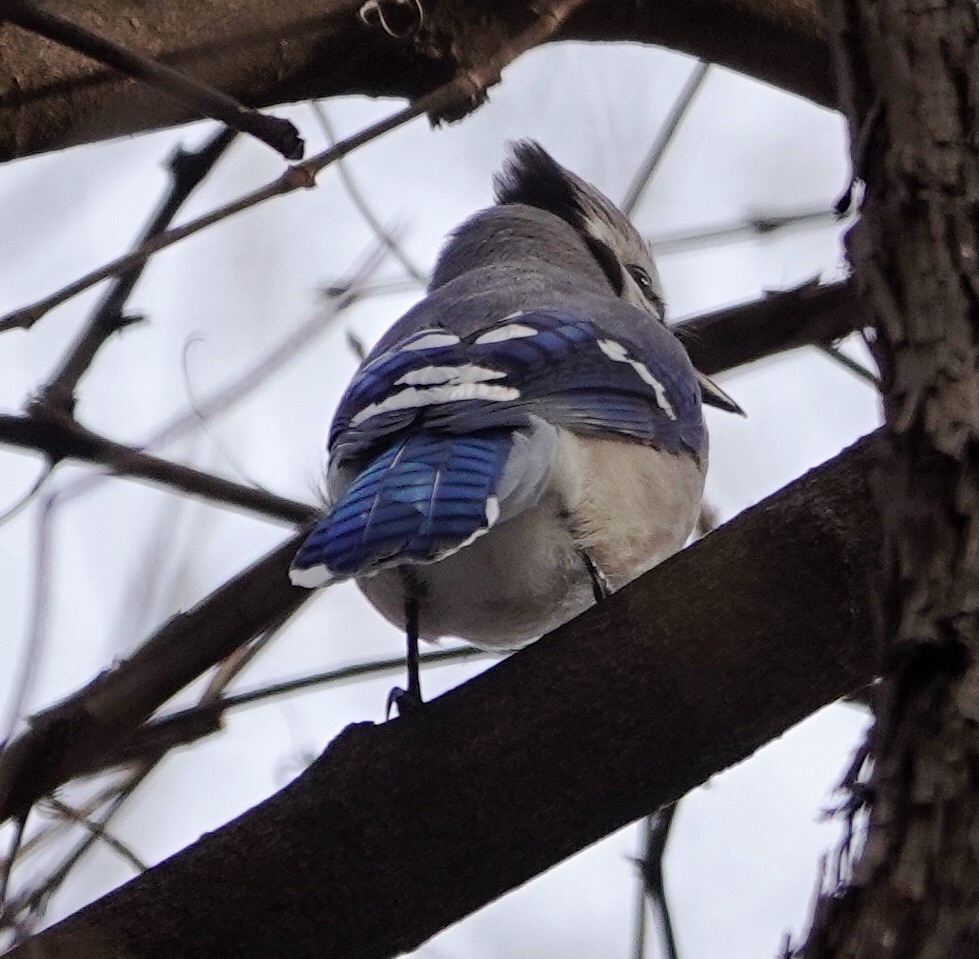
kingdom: Animalia
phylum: Chordata
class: Aves
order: Passeriformes
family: Corvidae
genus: Cyanocitta
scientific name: Cyanocitta cristata
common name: Blue jay
